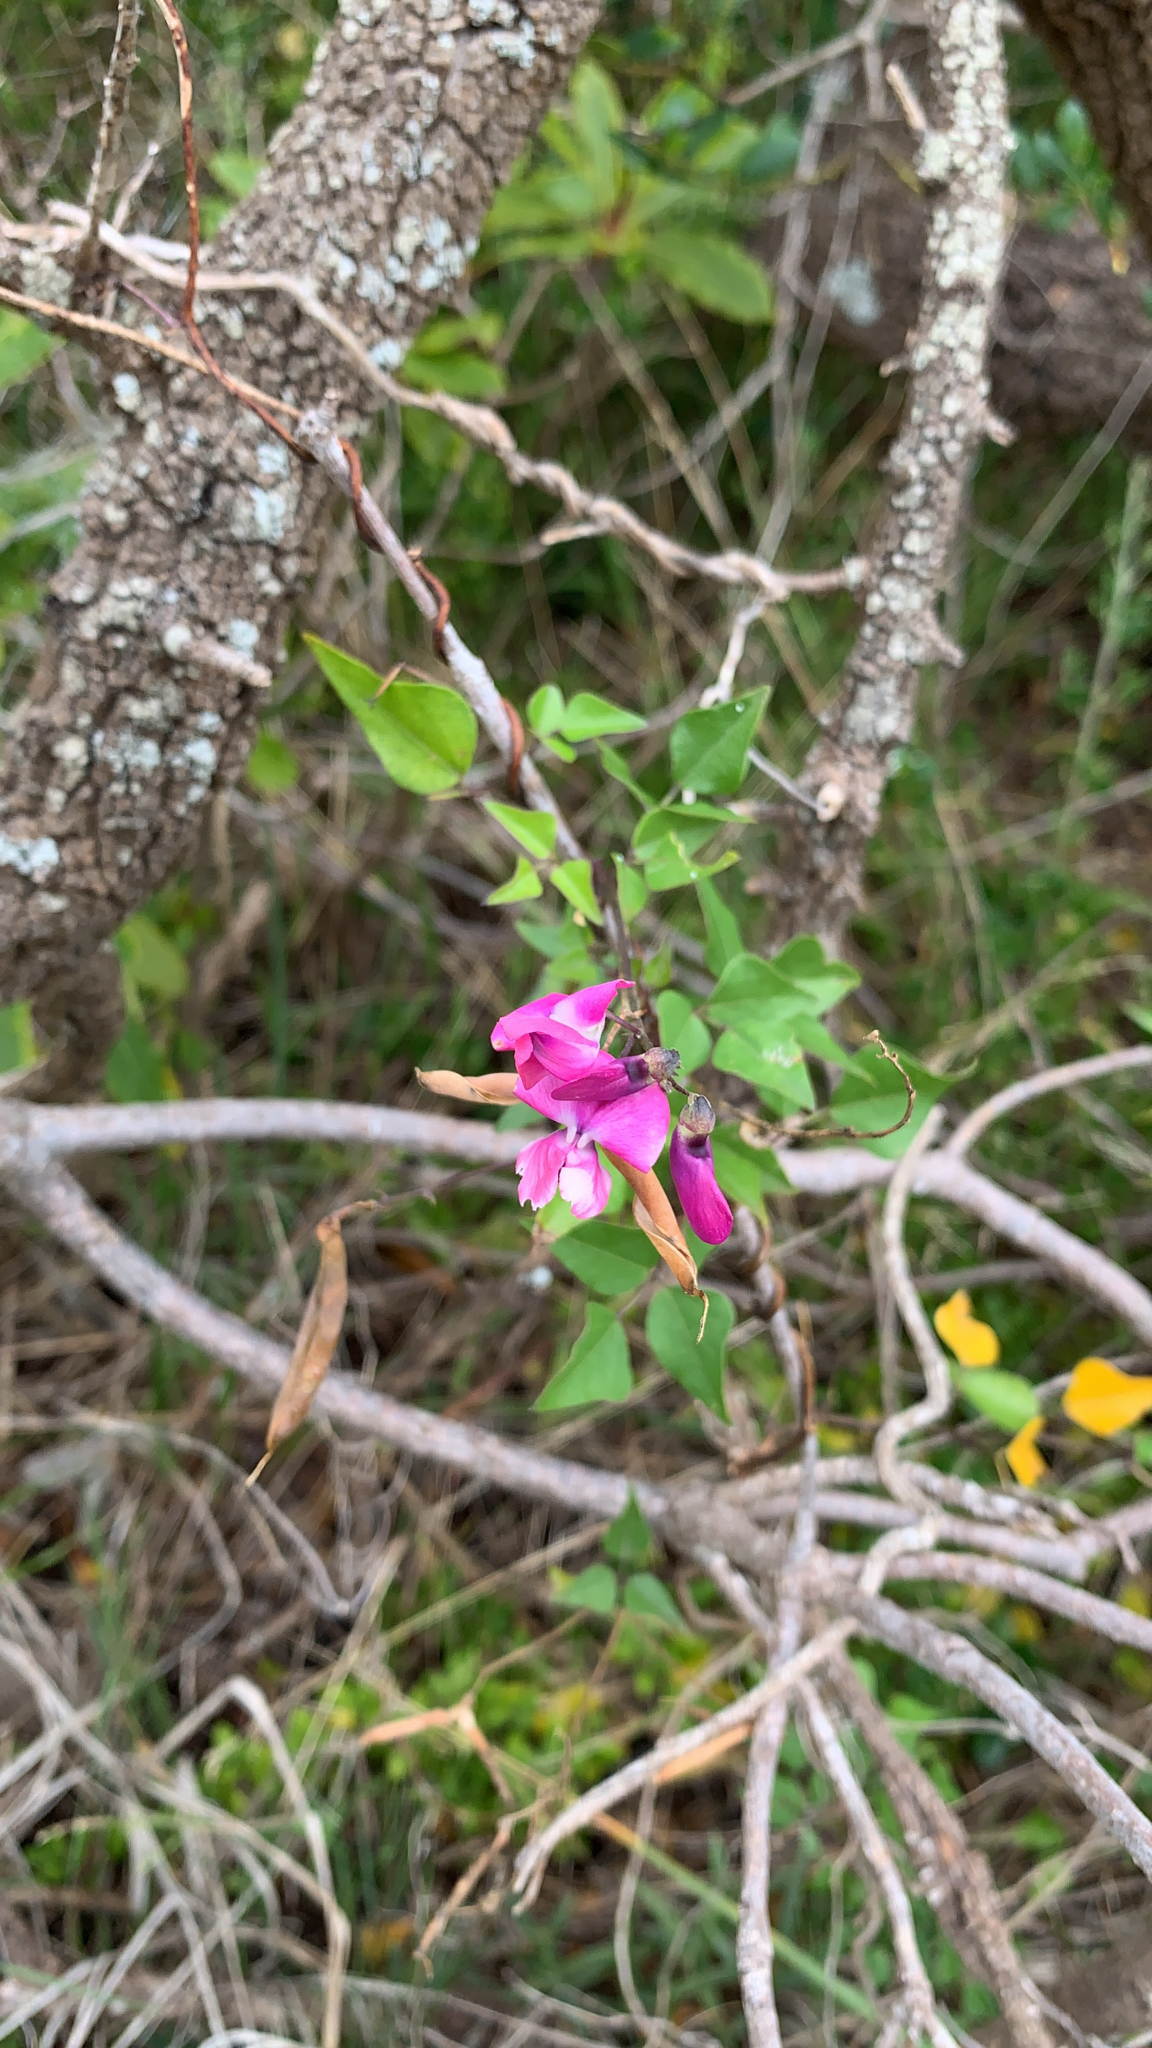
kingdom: Plantae
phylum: Tracheophyta
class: Magnoliopsida
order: Fabales
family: Fabaceae
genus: Dipogon
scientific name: Dipogon lignosus
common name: Okie bean
